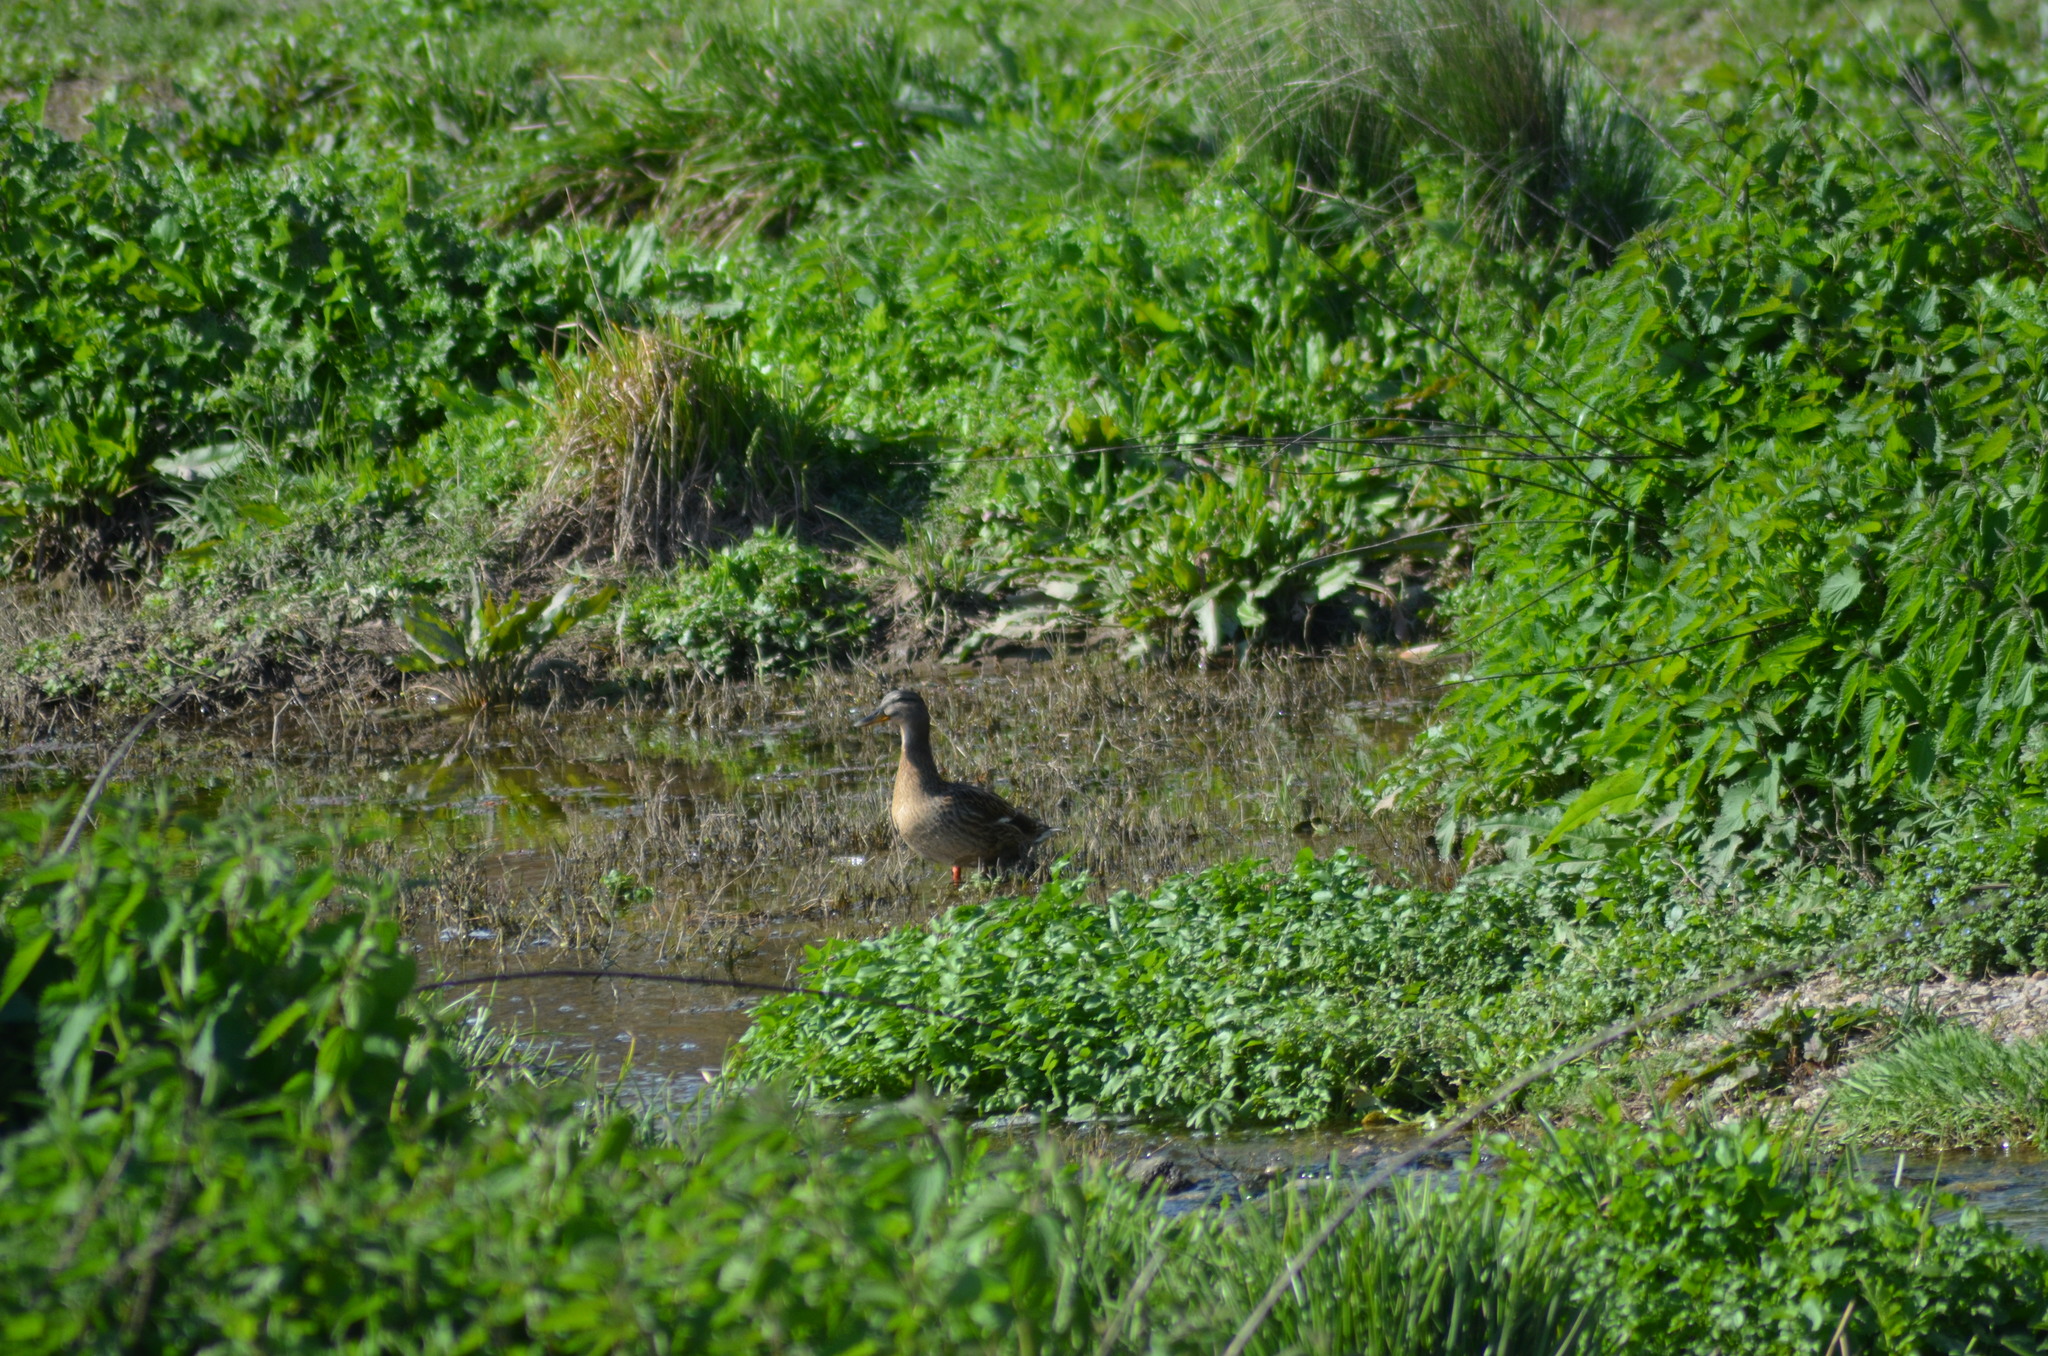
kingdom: Animalia
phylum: Chordata
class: Aves
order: Anseriformes
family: Anatidae
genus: Anas
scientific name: Anas platyrhynchos
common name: Mallard
